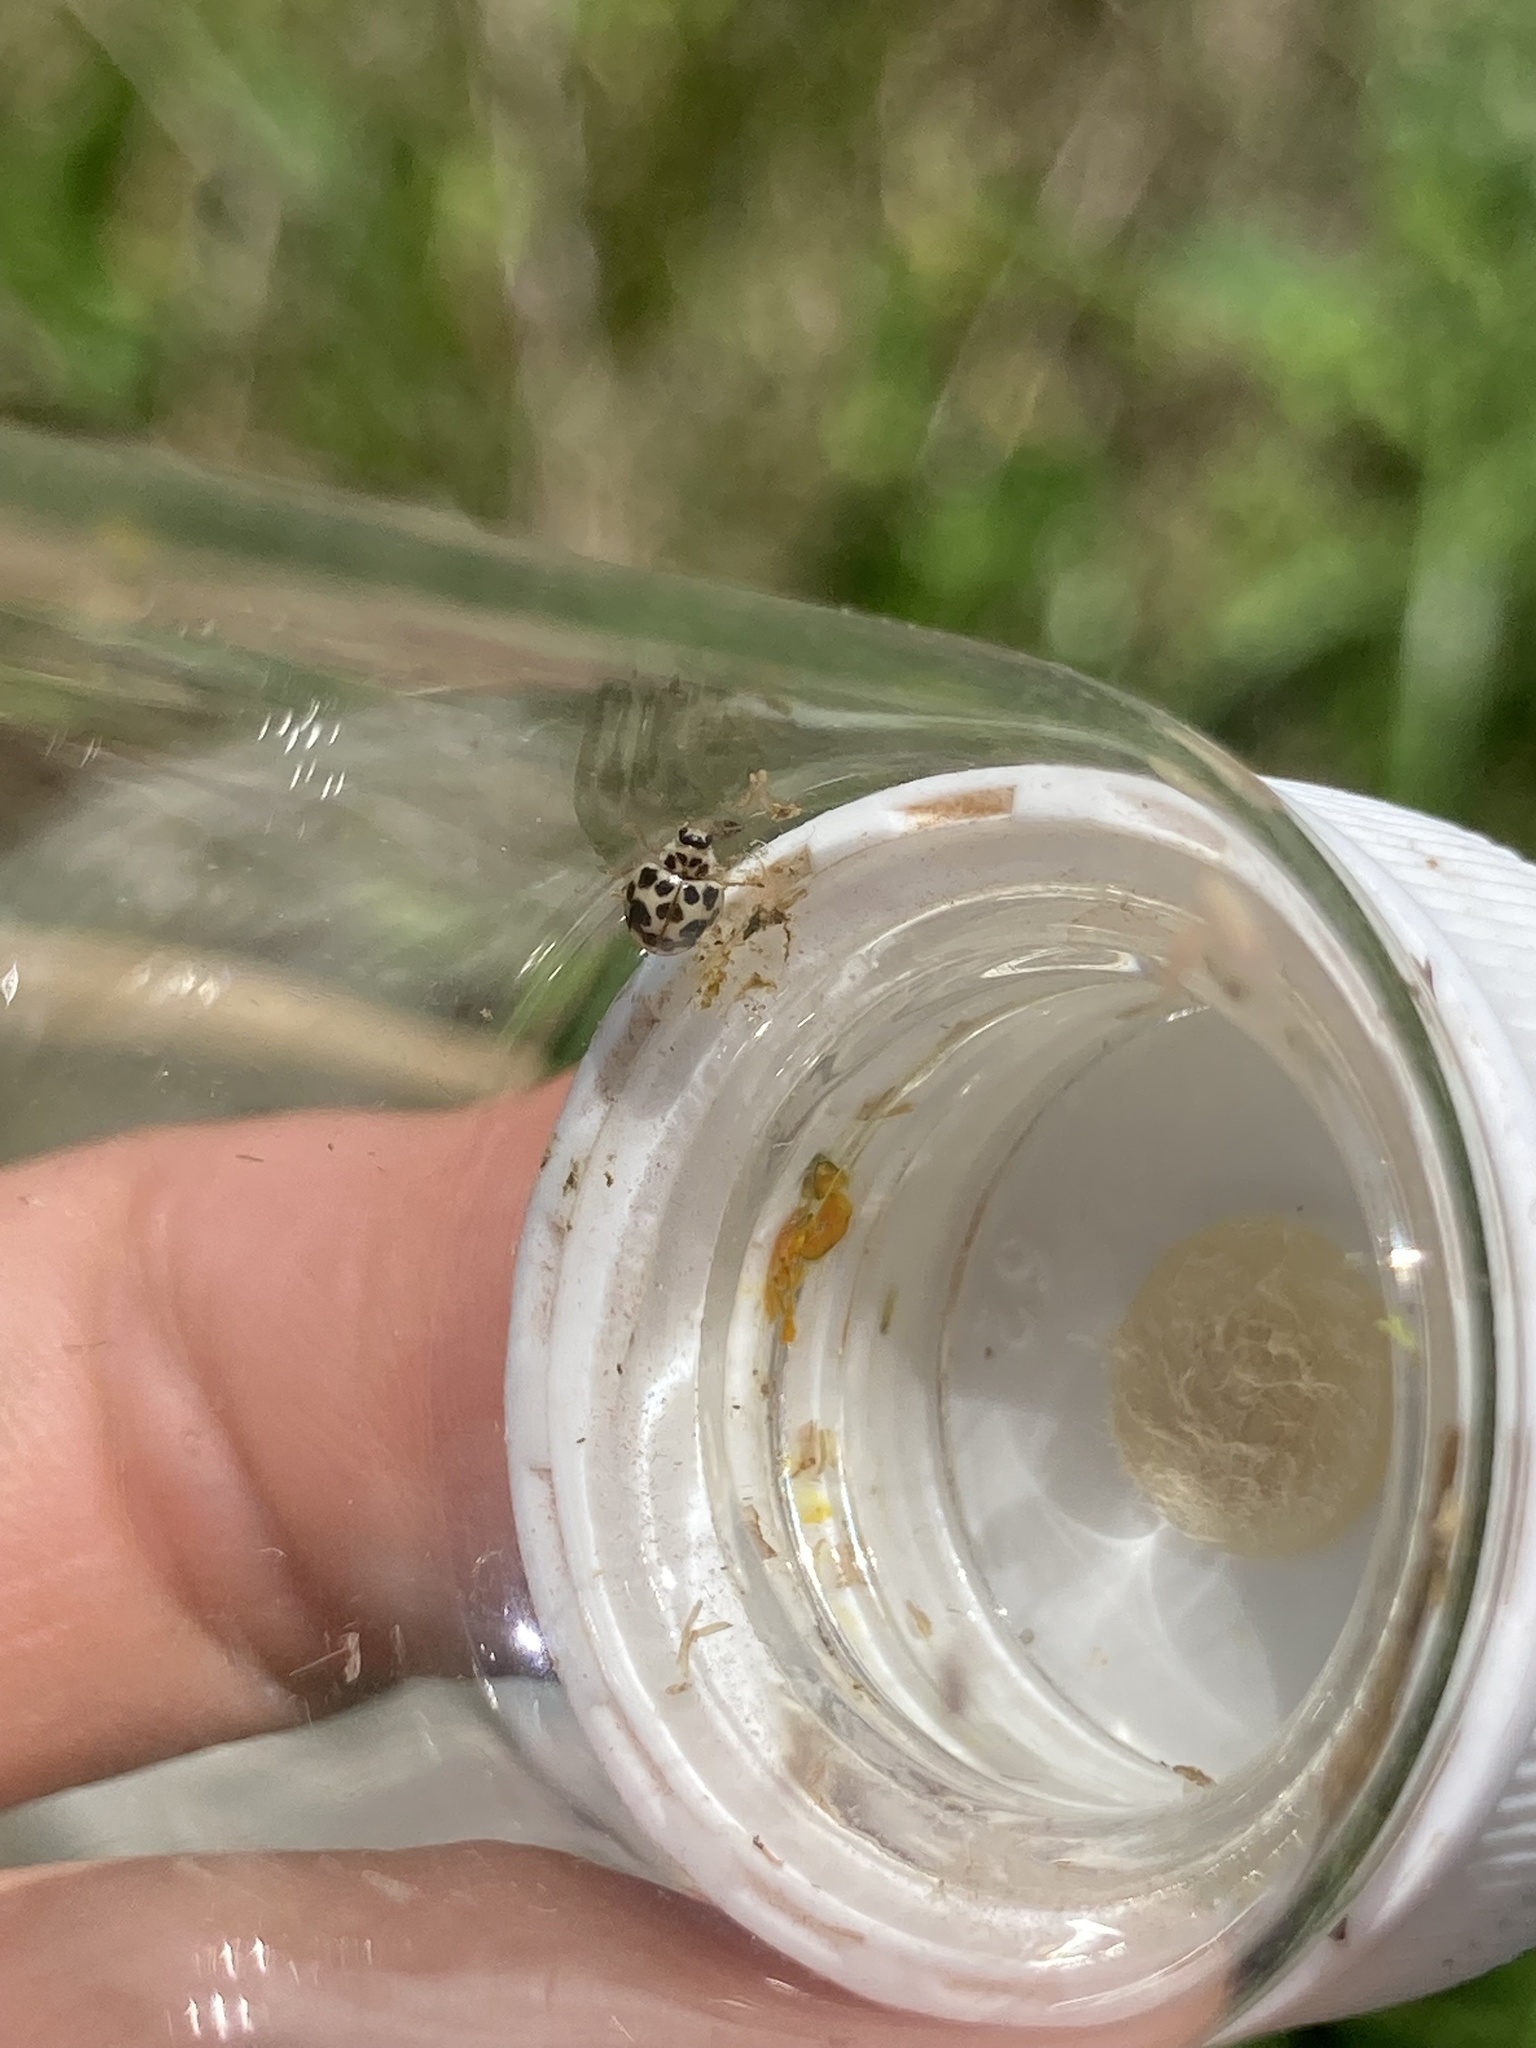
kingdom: Animalia
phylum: Arthropoda
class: Insecta
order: Coleoptera
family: Coccinellidae
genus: Psyllobora
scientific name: Psyllobora vigintimaculata
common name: Ladybird beetle
